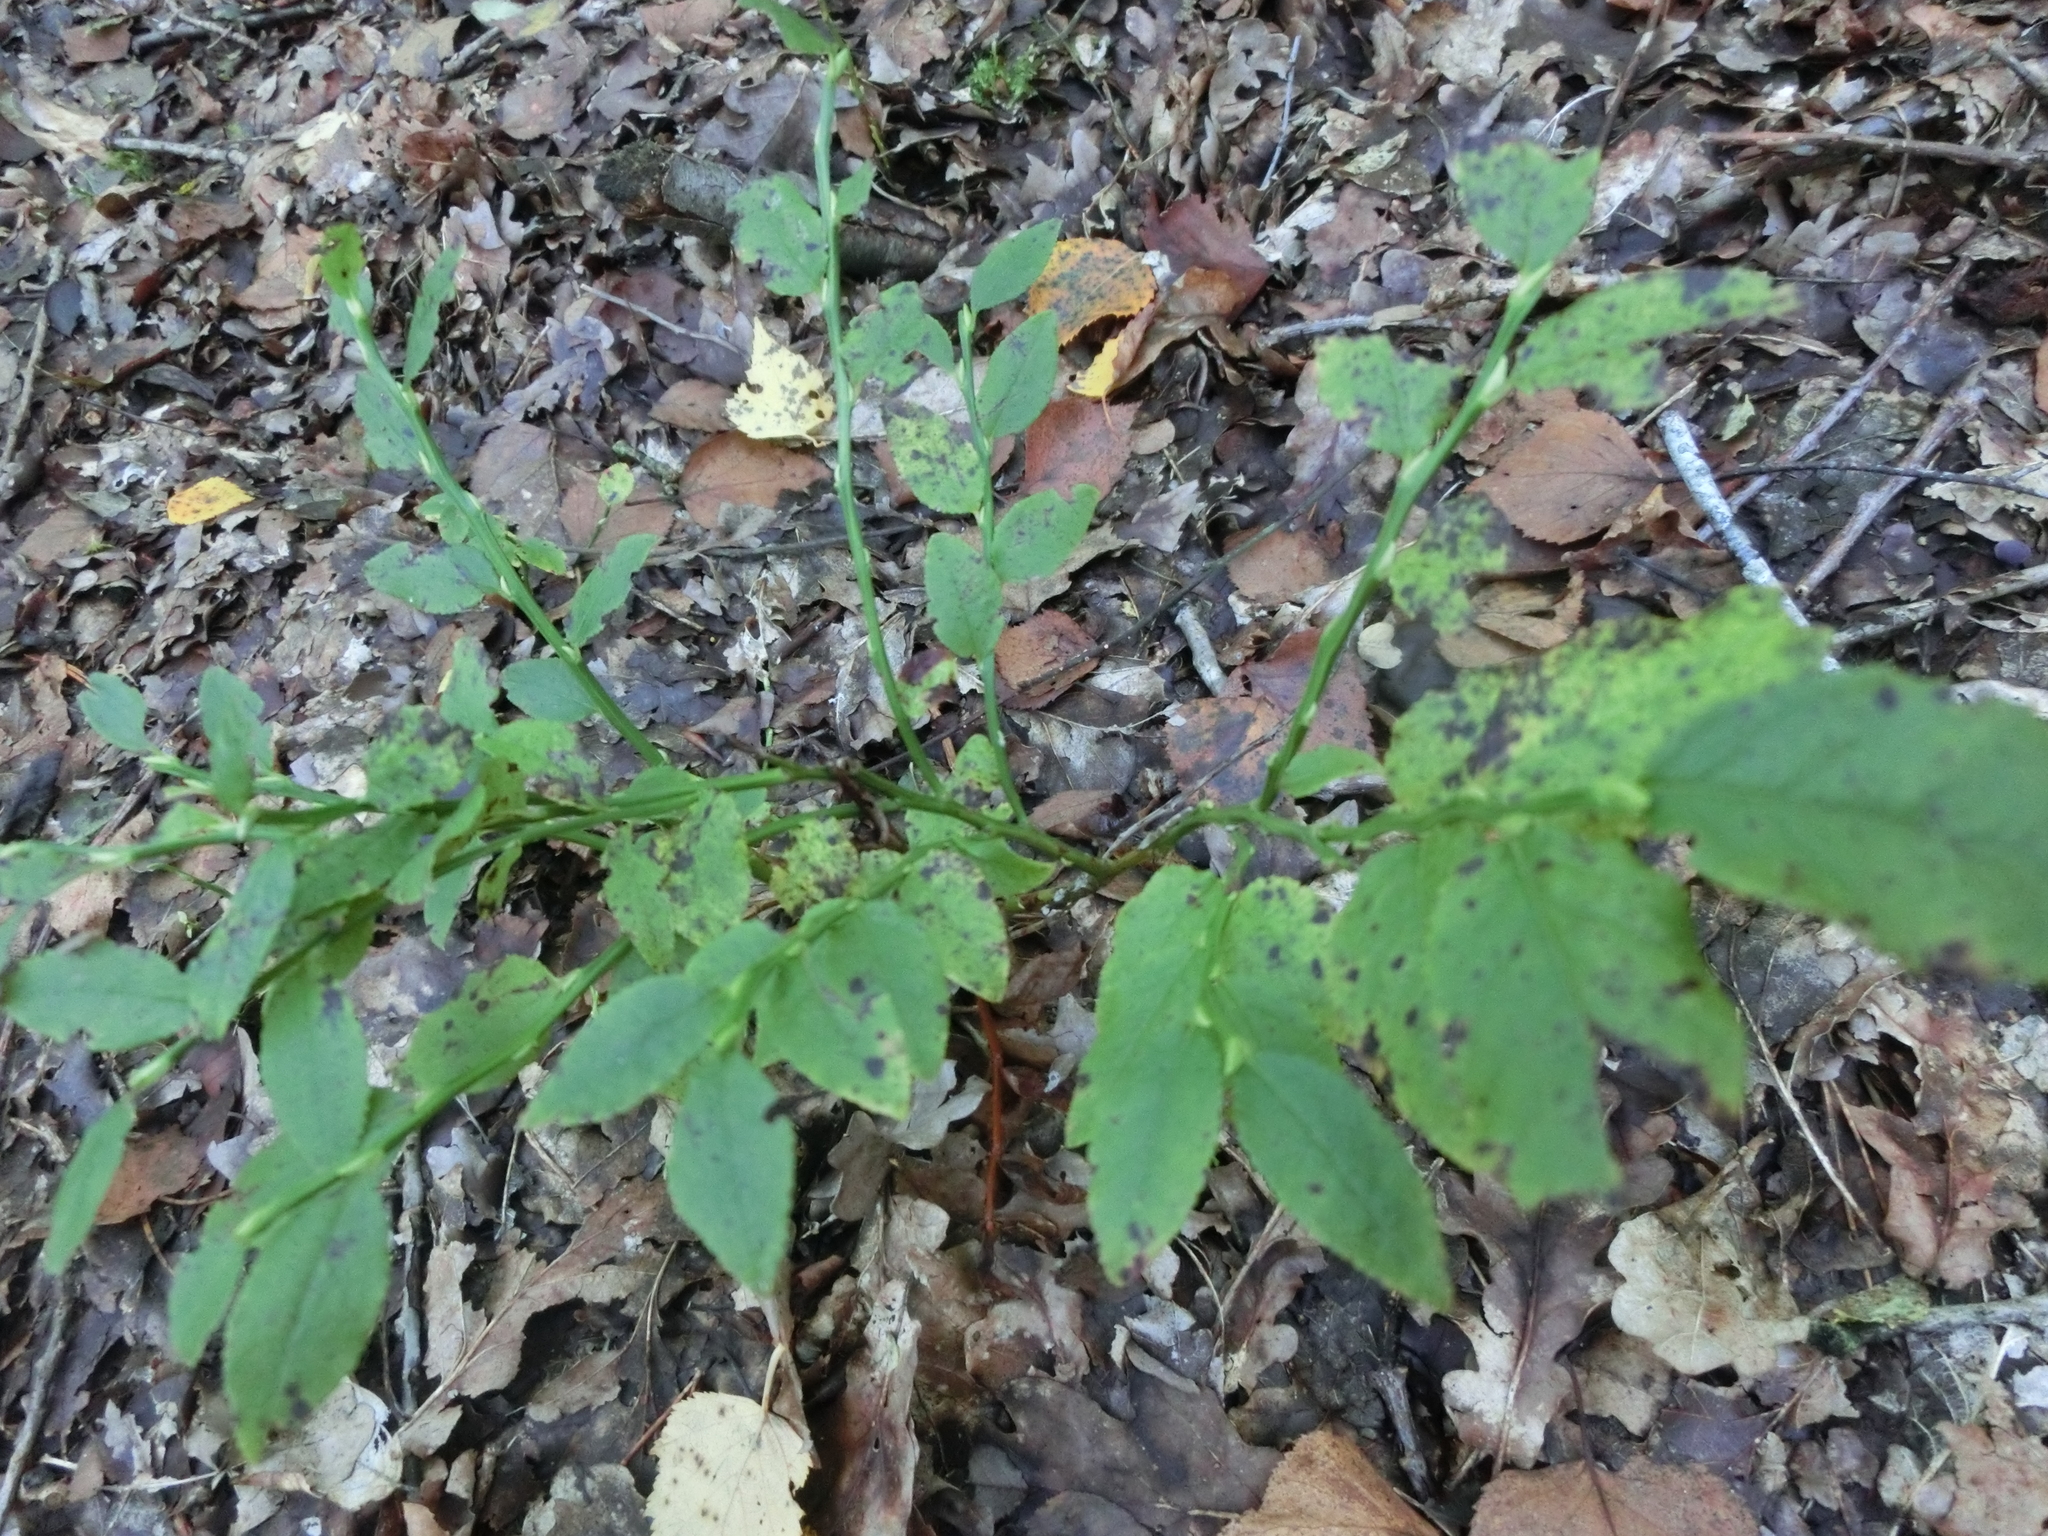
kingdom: Plantae
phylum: Tracheophyta
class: Magnoliopsida
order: Ericales
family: Ericaceae
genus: Vaccinium
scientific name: Vaccinium myrtillus
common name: Bilberry
